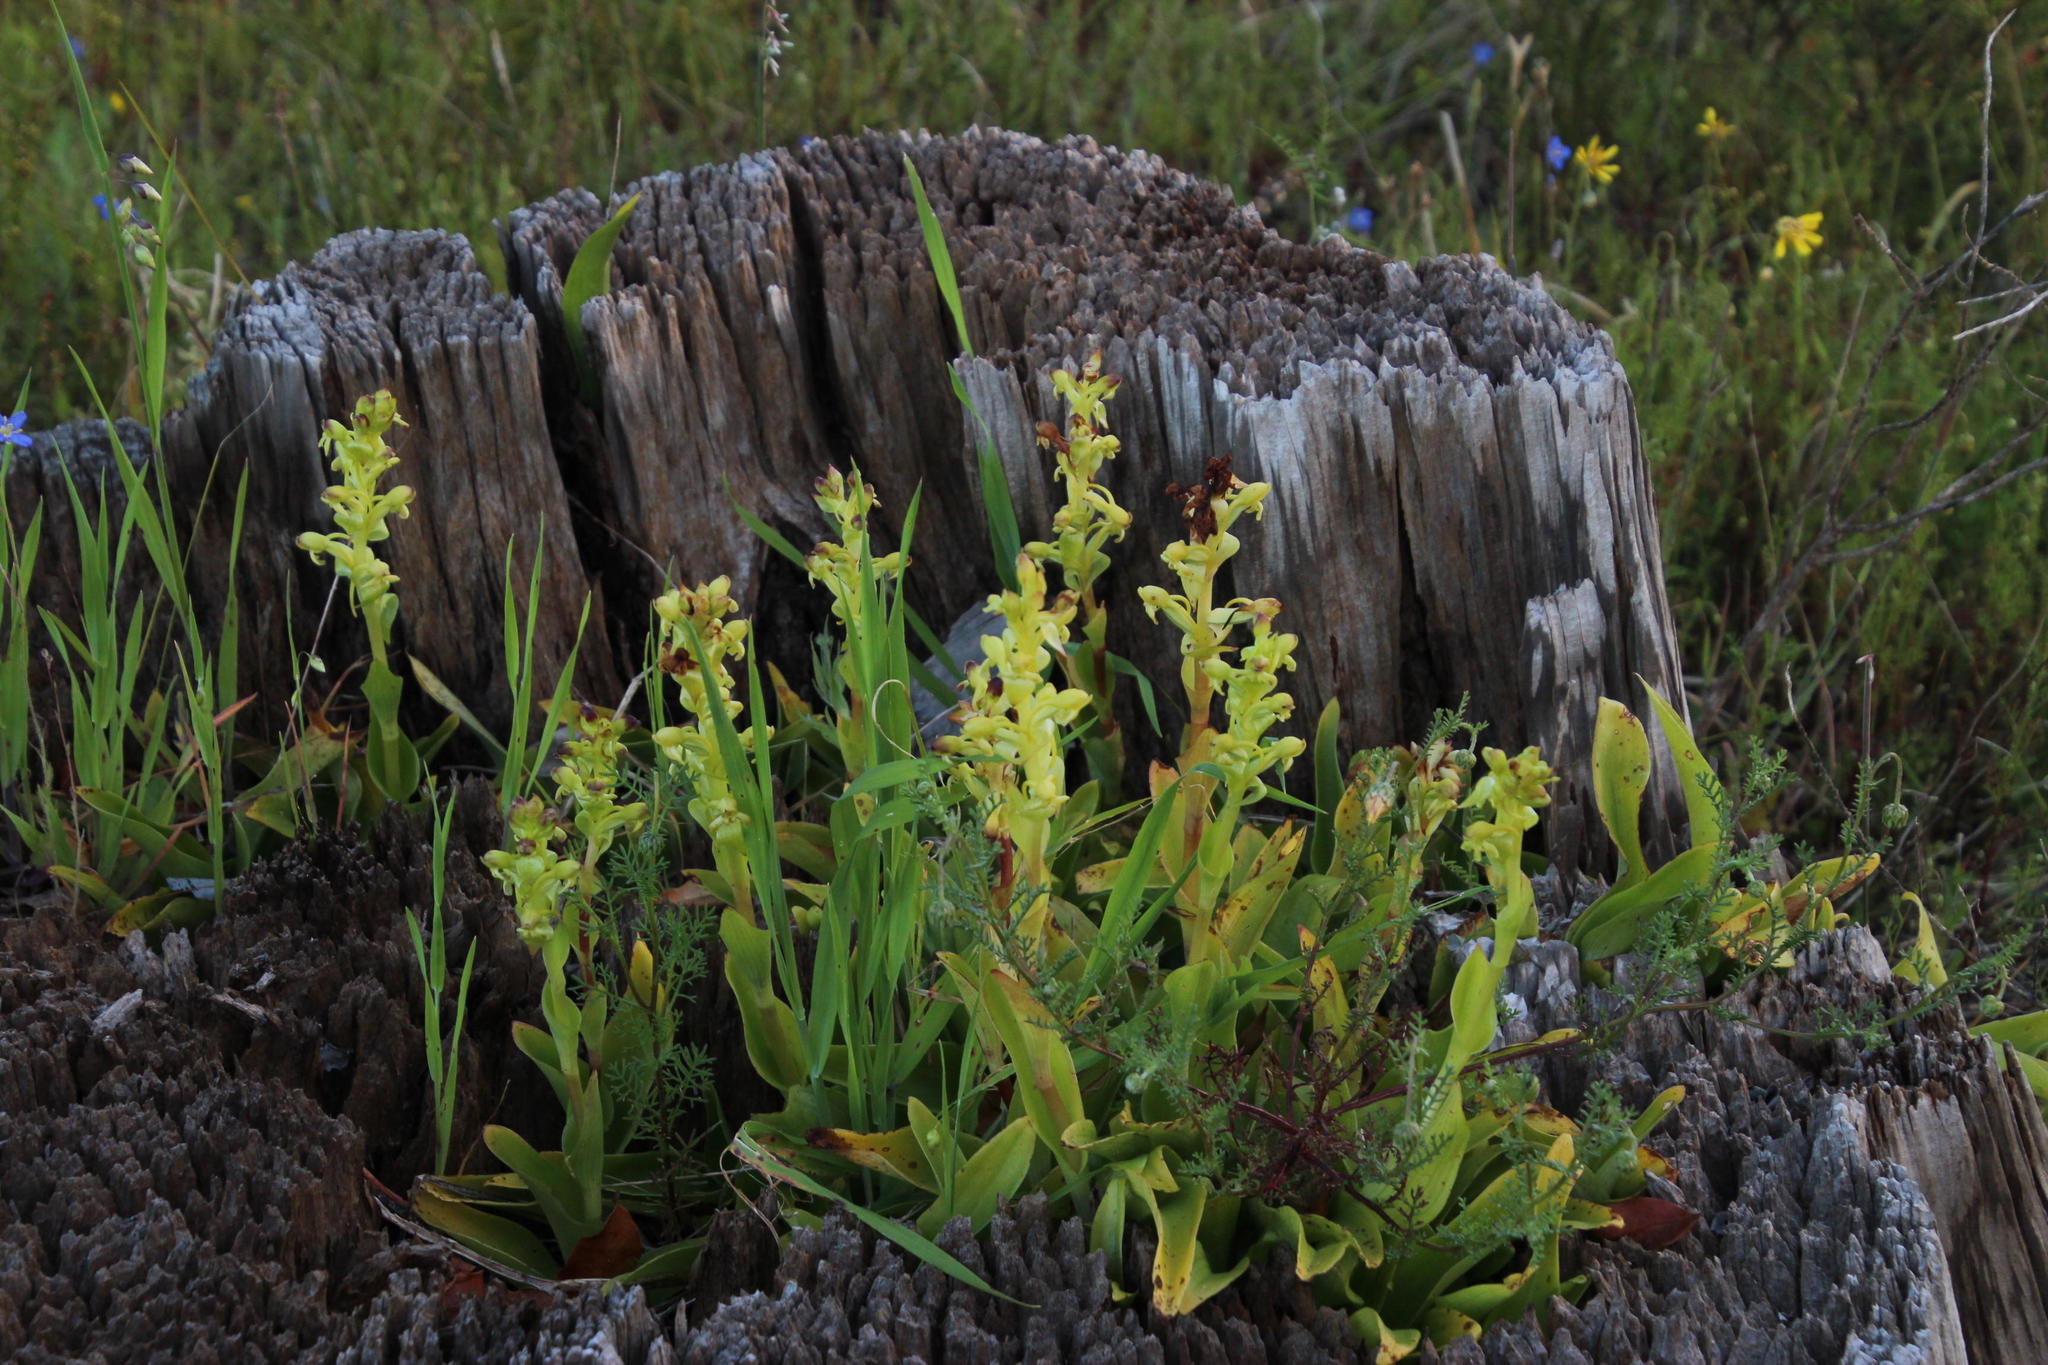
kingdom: Plantae
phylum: Tracheophyta
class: Liliopsida
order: Asparagales
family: Orchidaceae
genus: Satyrium
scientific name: Satyrium odorum
